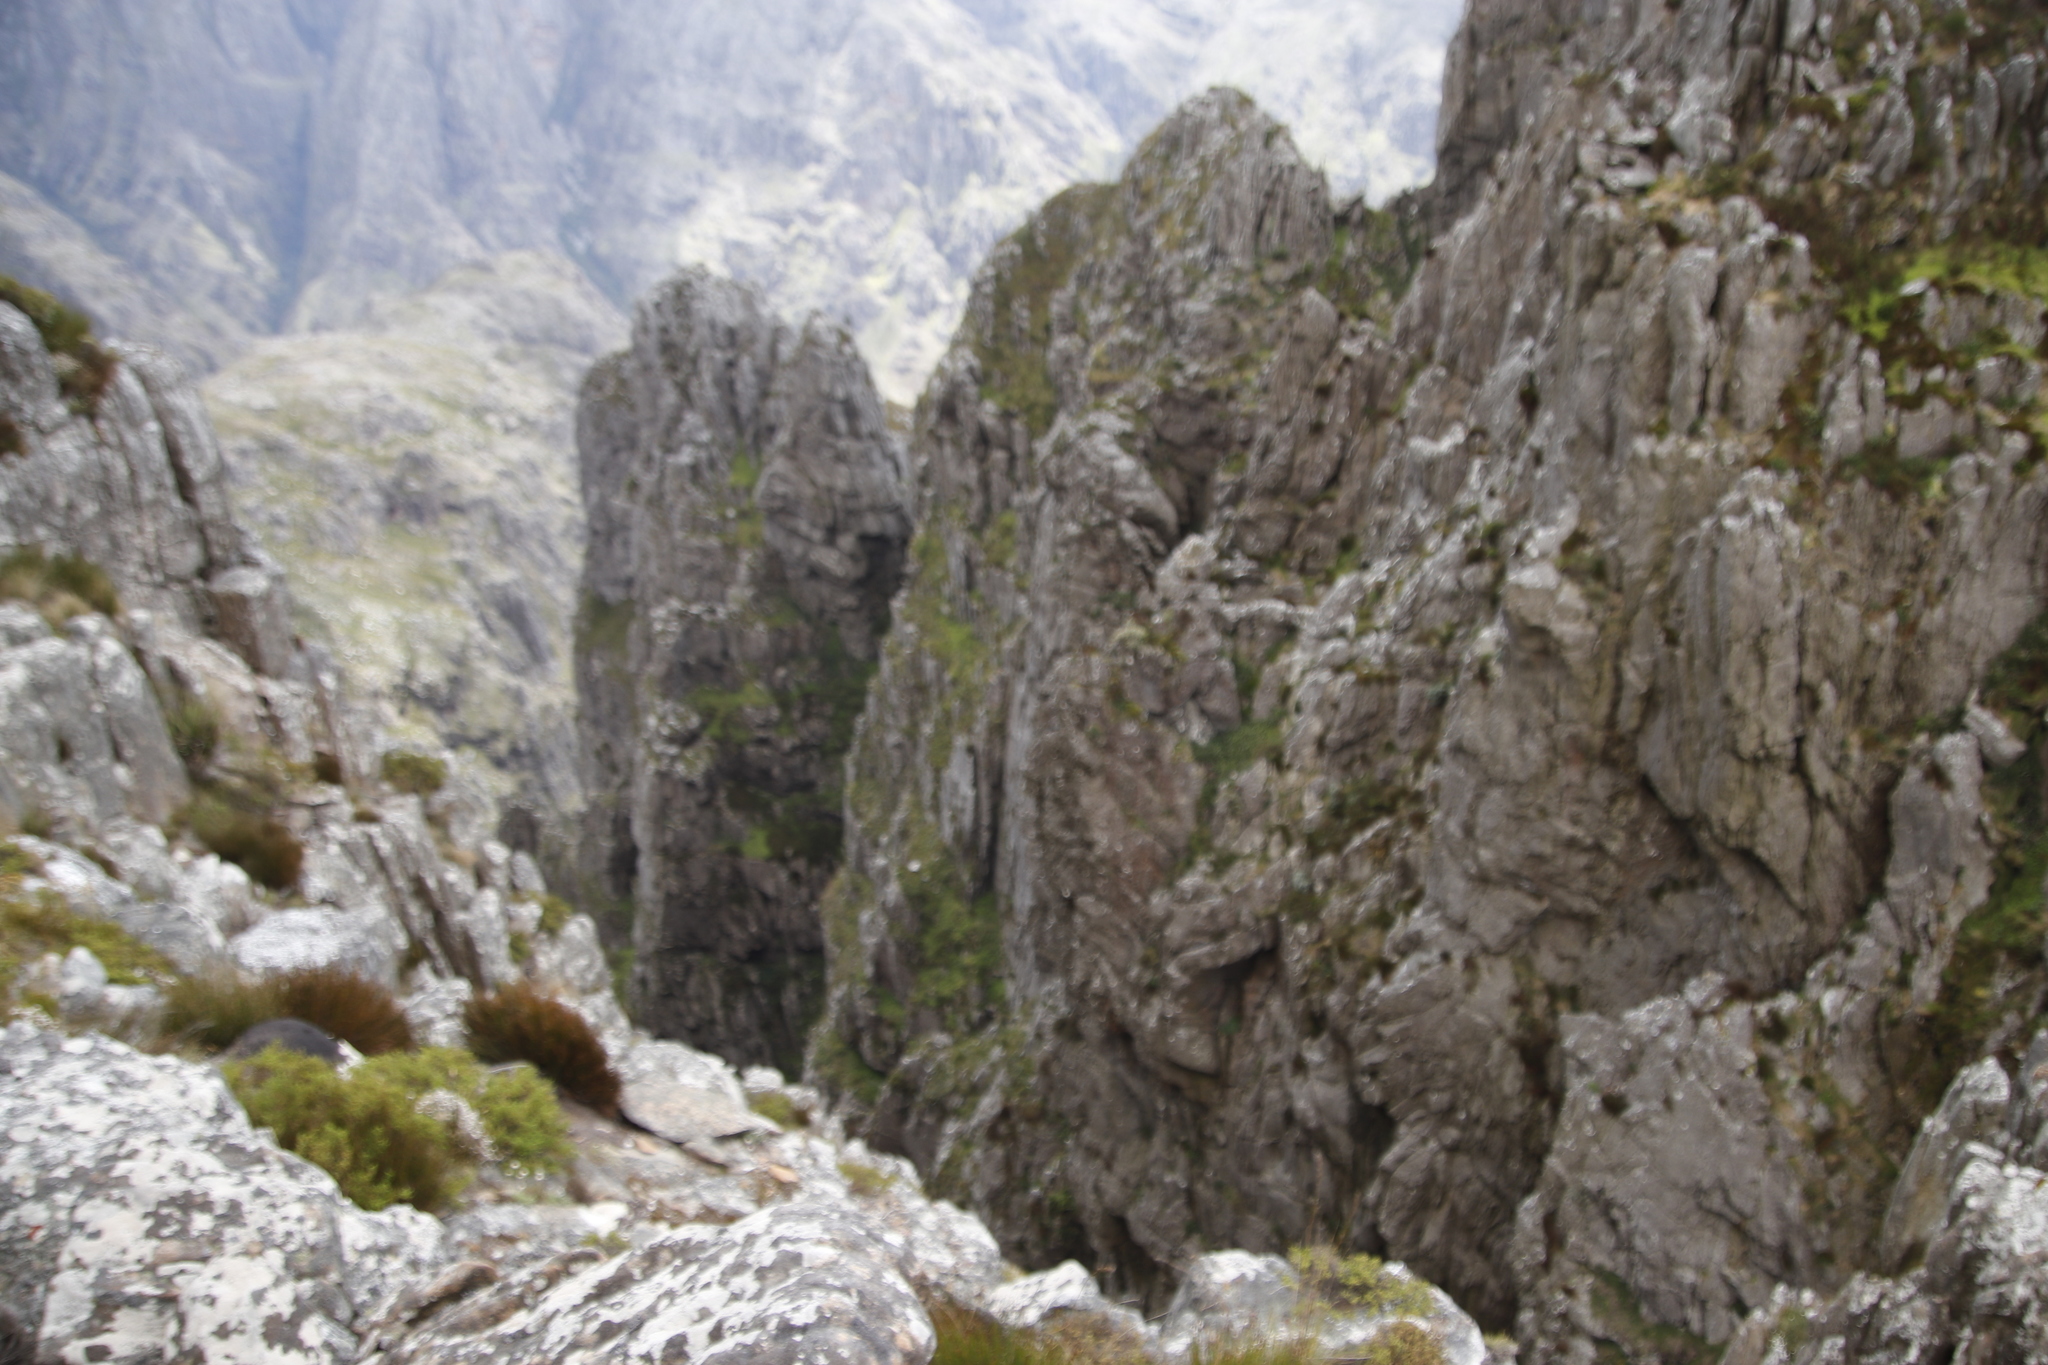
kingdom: Plantae
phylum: Tracheophyta
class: Liliopsida
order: Asparagales
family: Iridaceae
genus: Aristea
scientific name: Aristea latifolia
